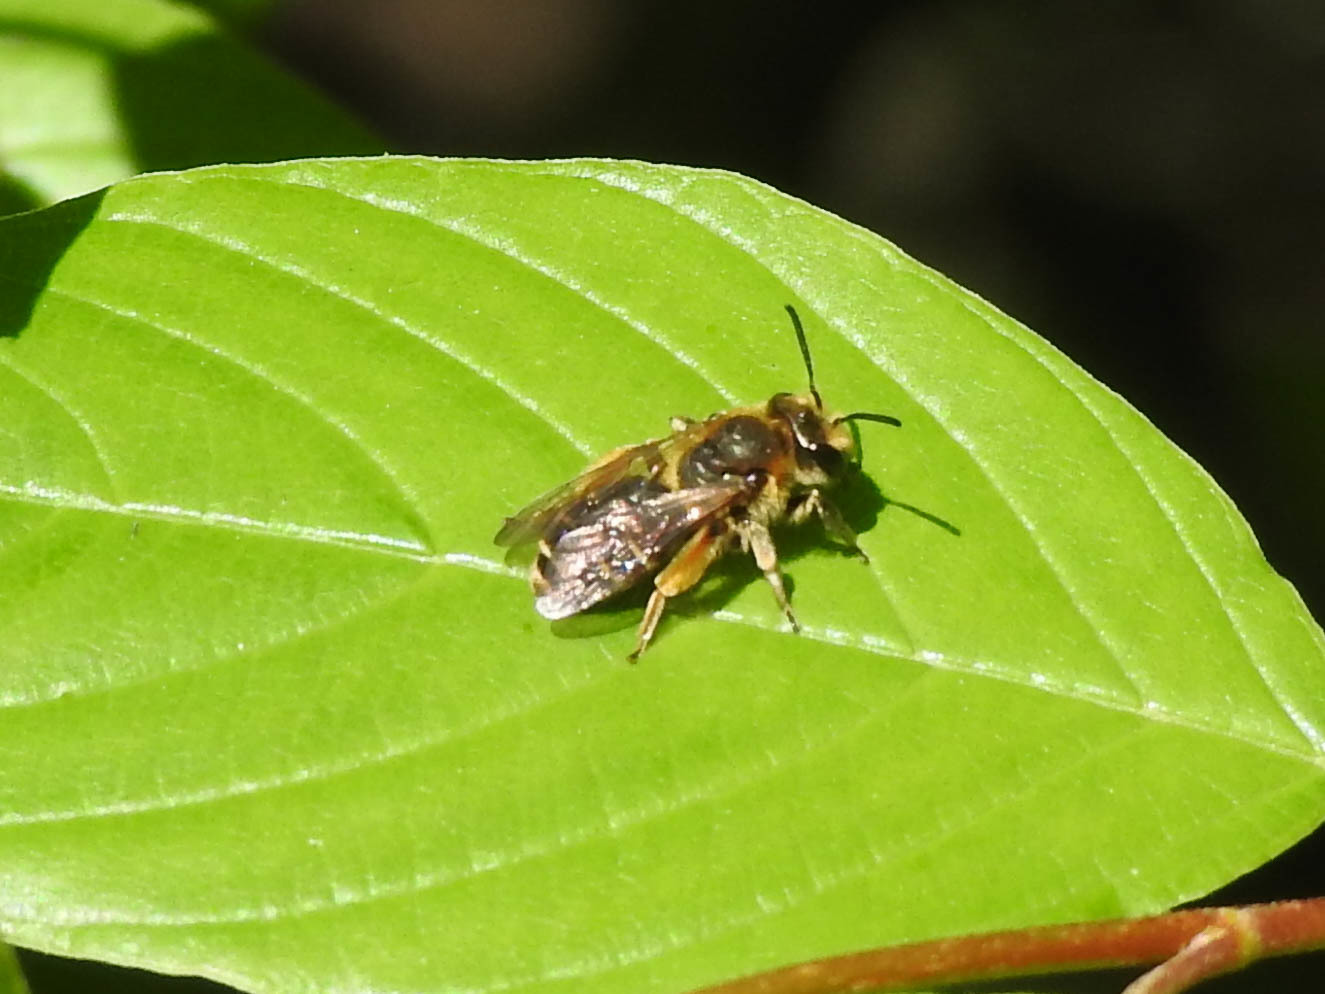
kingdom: Animalia
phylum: Arthropoda
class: Insecta
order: Hymenoptera
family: Andrenidae
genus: Andrena
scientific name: Andrena wilkella
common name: Wilke's mining bee
